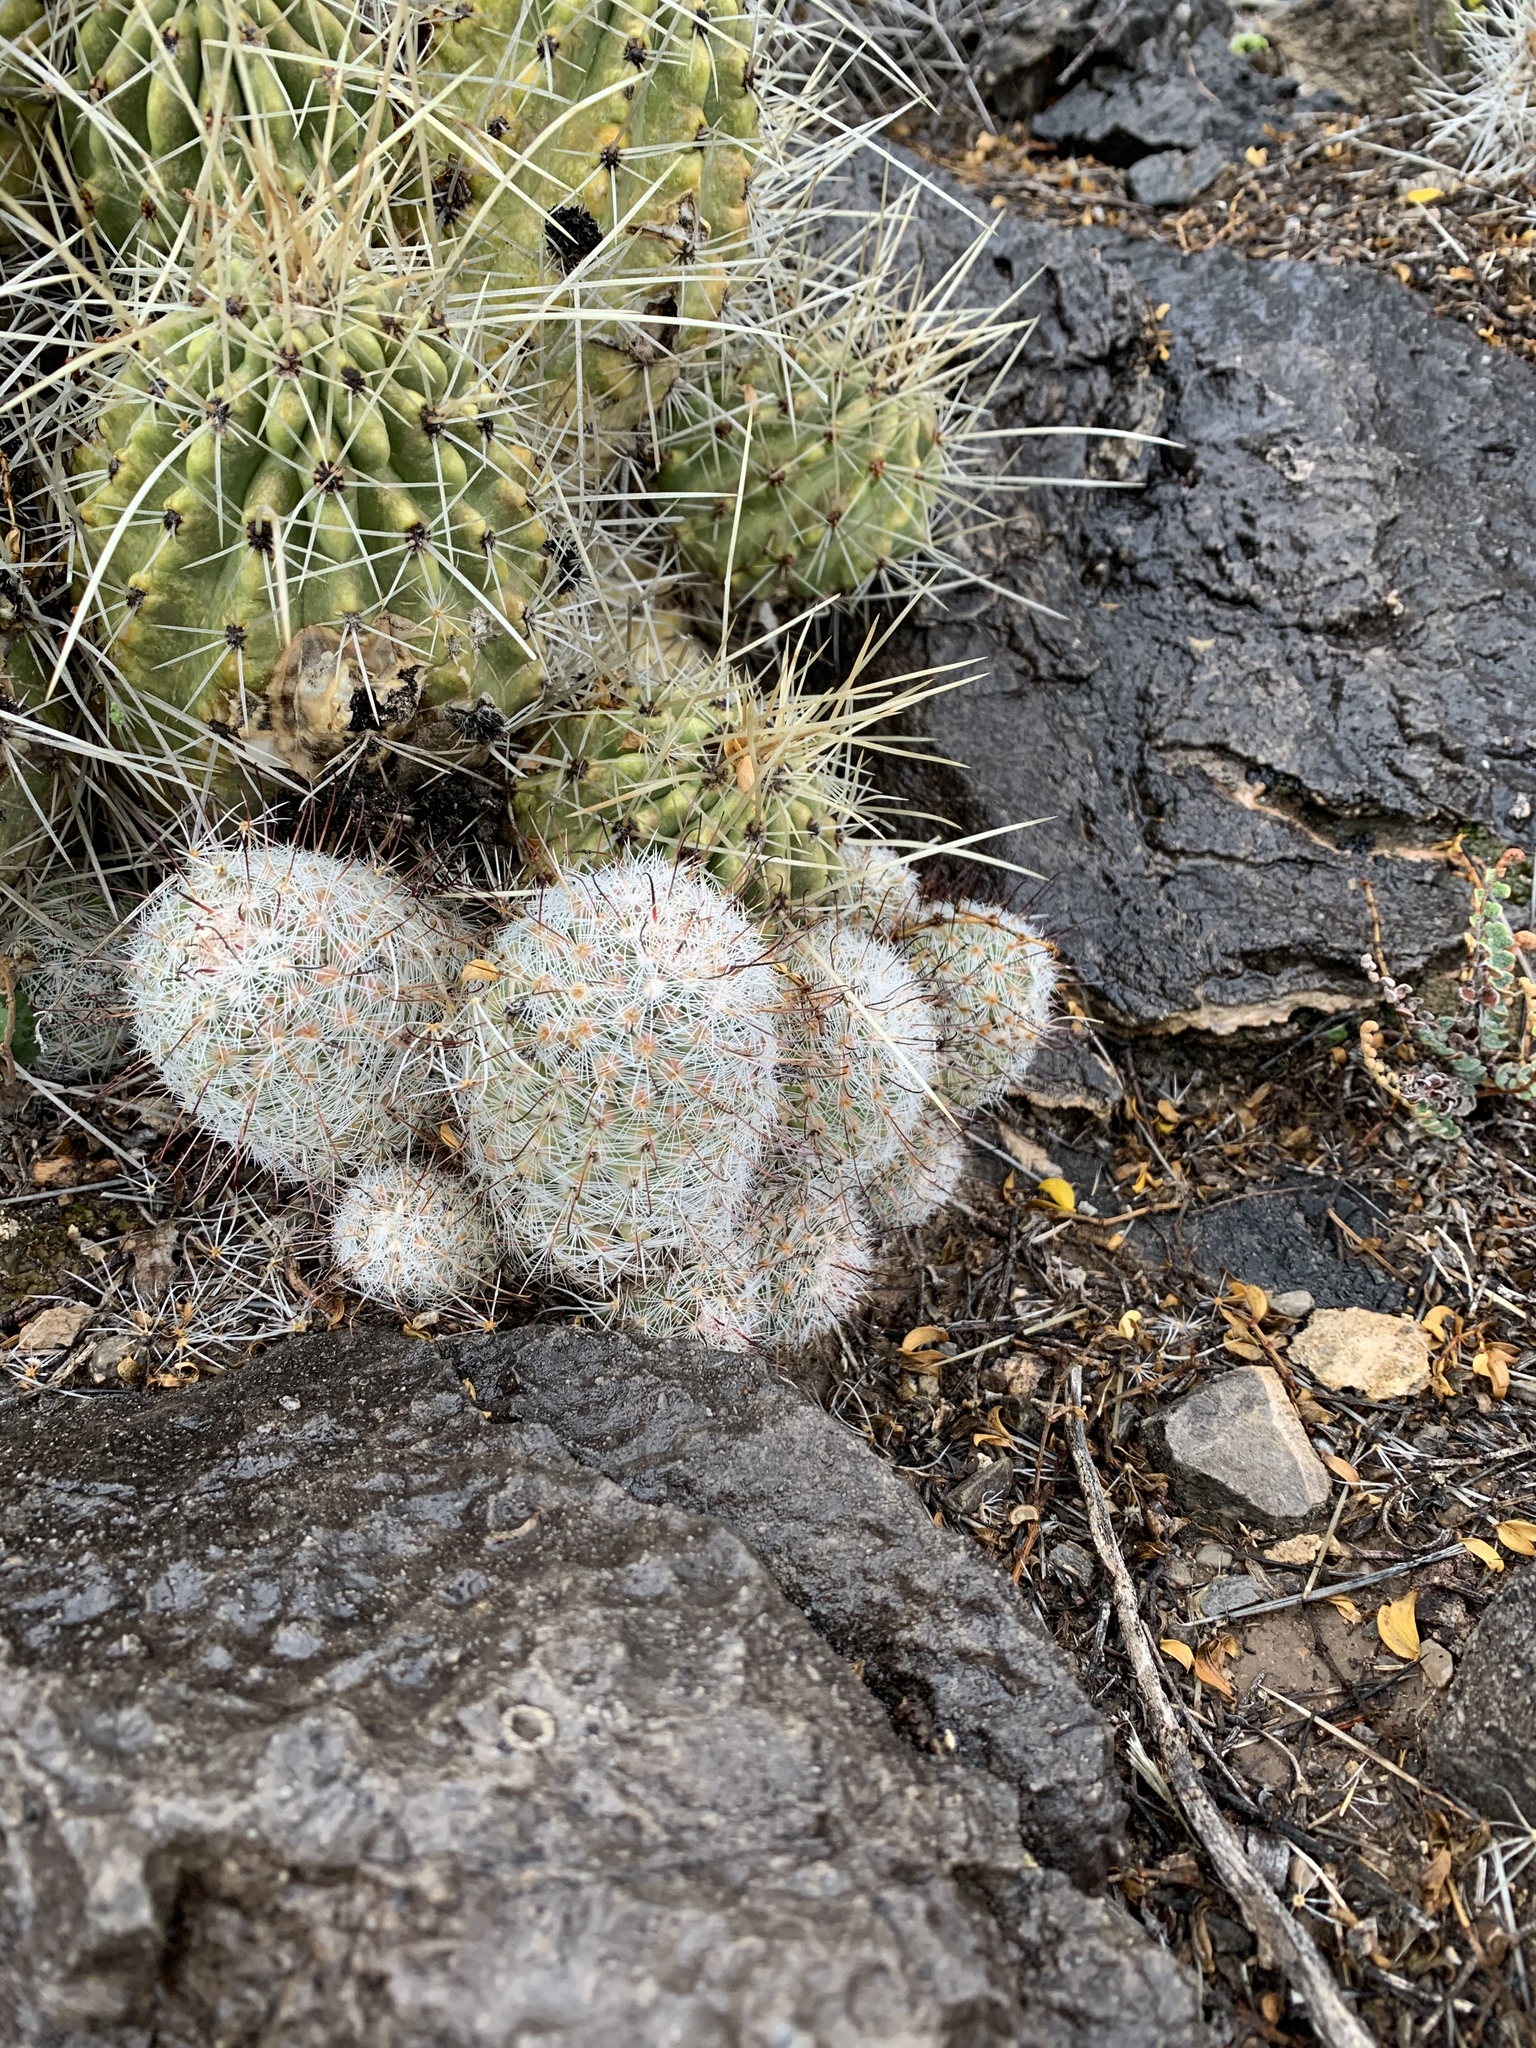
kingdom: Plantae
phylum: Tracheophyta
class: Magnoliopsida
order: Caryophyllales
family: Cactaceae
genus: Cochemiea
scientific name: Cochemiea grahamii
